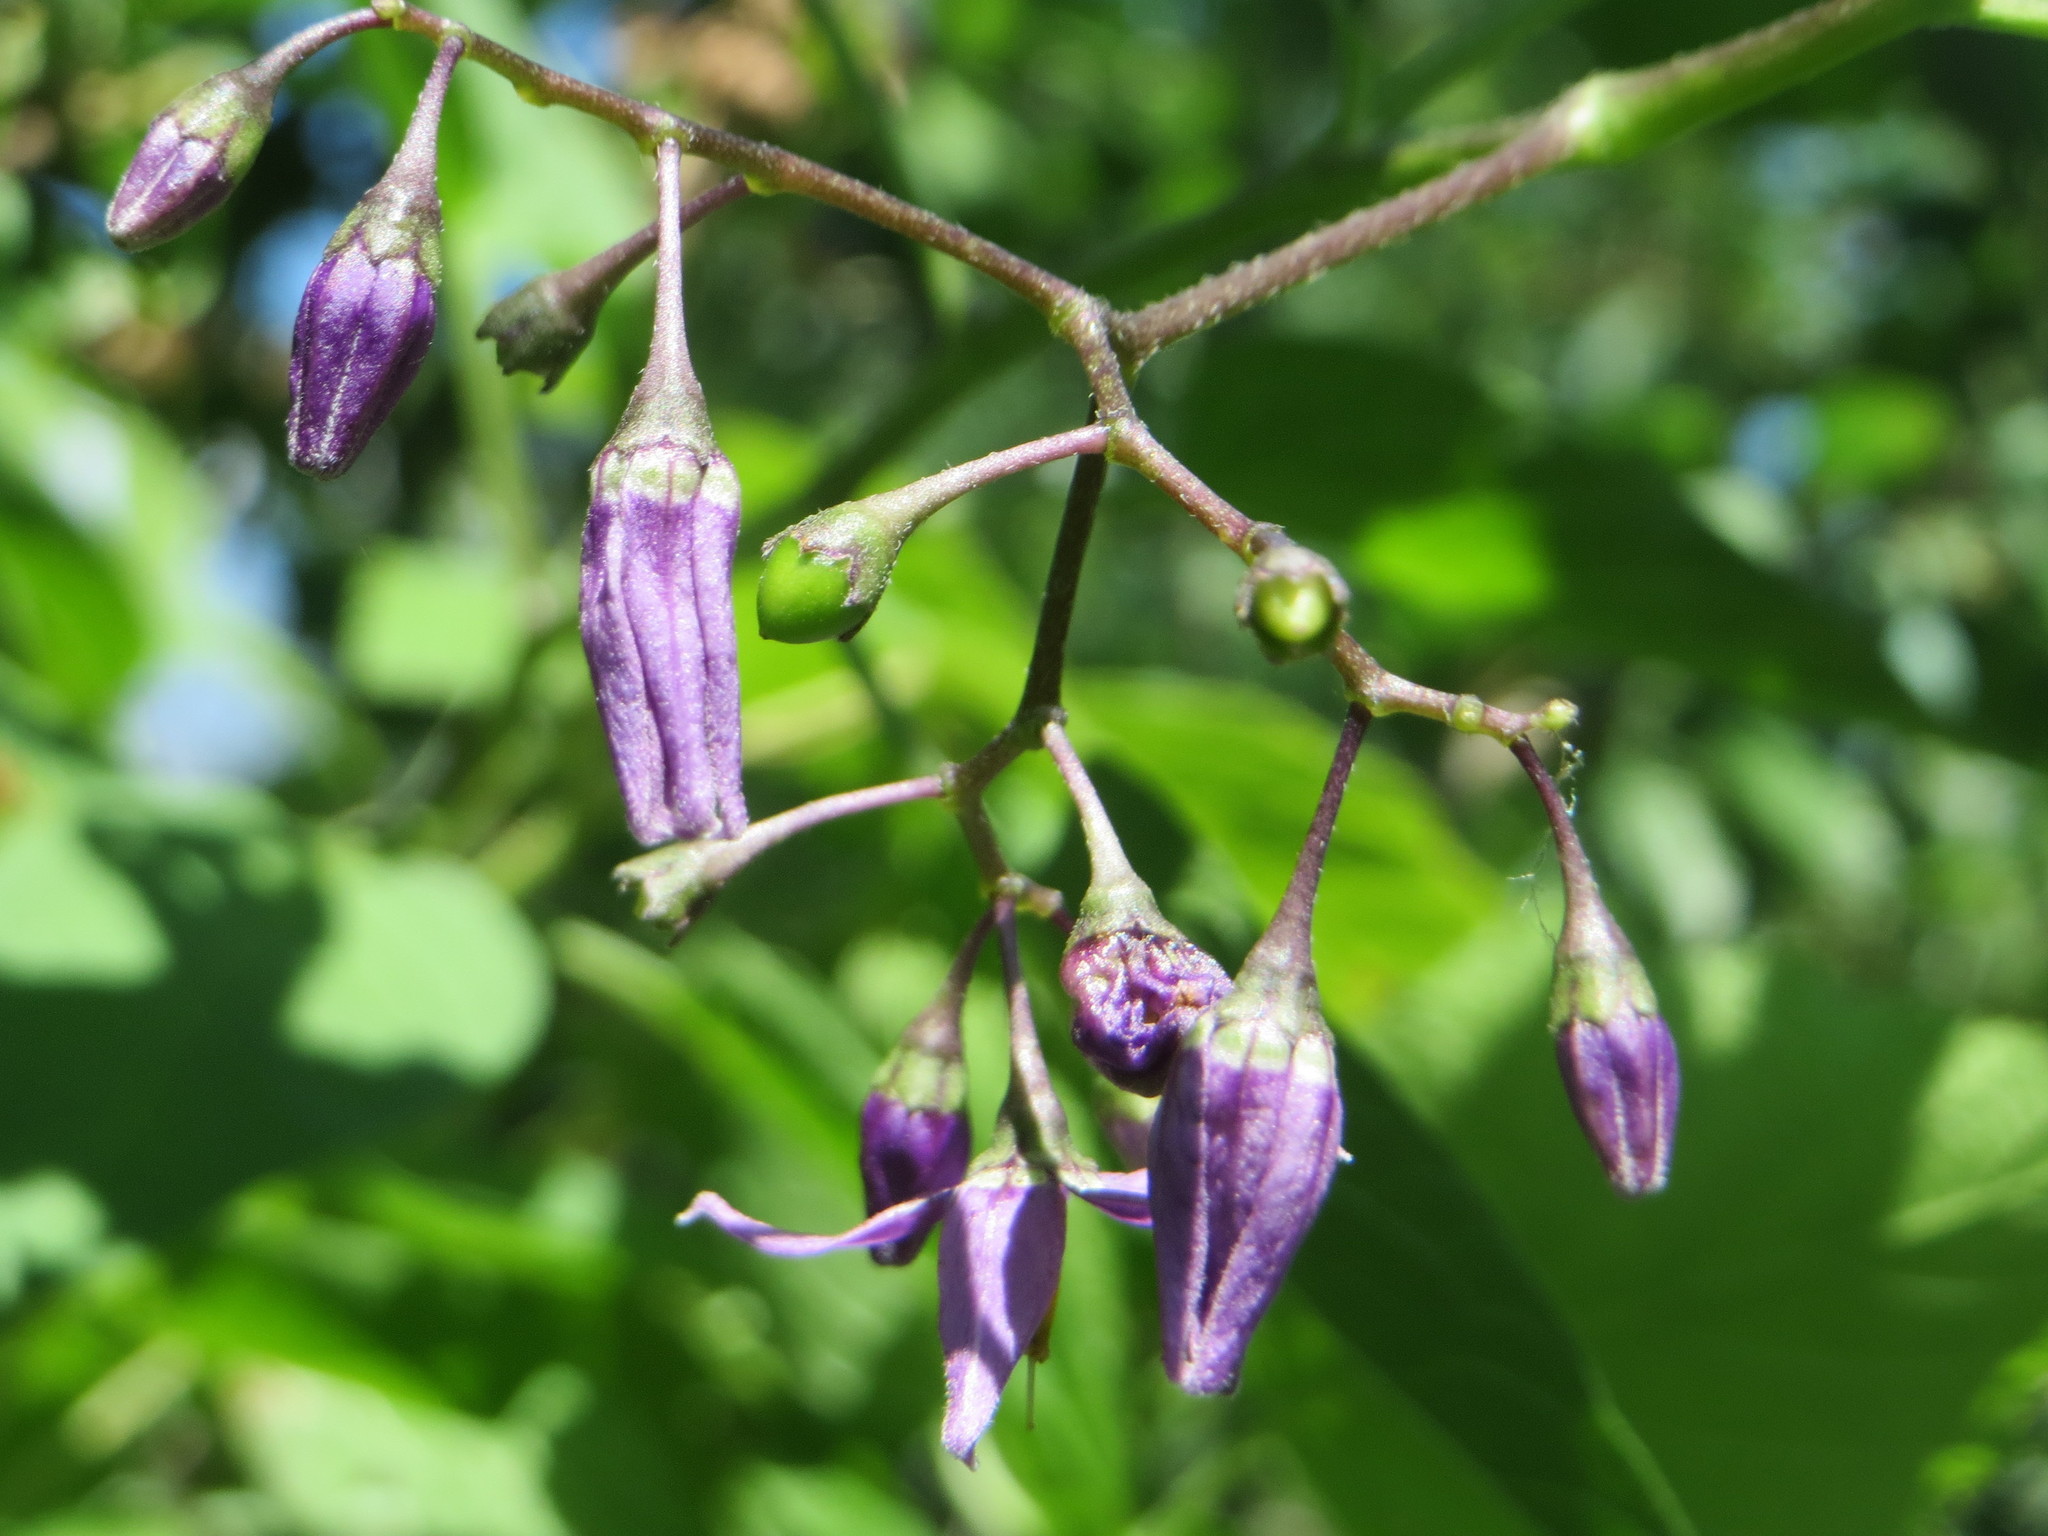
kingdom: Plantae
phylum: Tracheophyta
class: Magnoliopsida
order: Solanales
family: Solanaceae
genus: Solanum
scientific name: Solanum dulcamara
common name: Climbing nightshade
